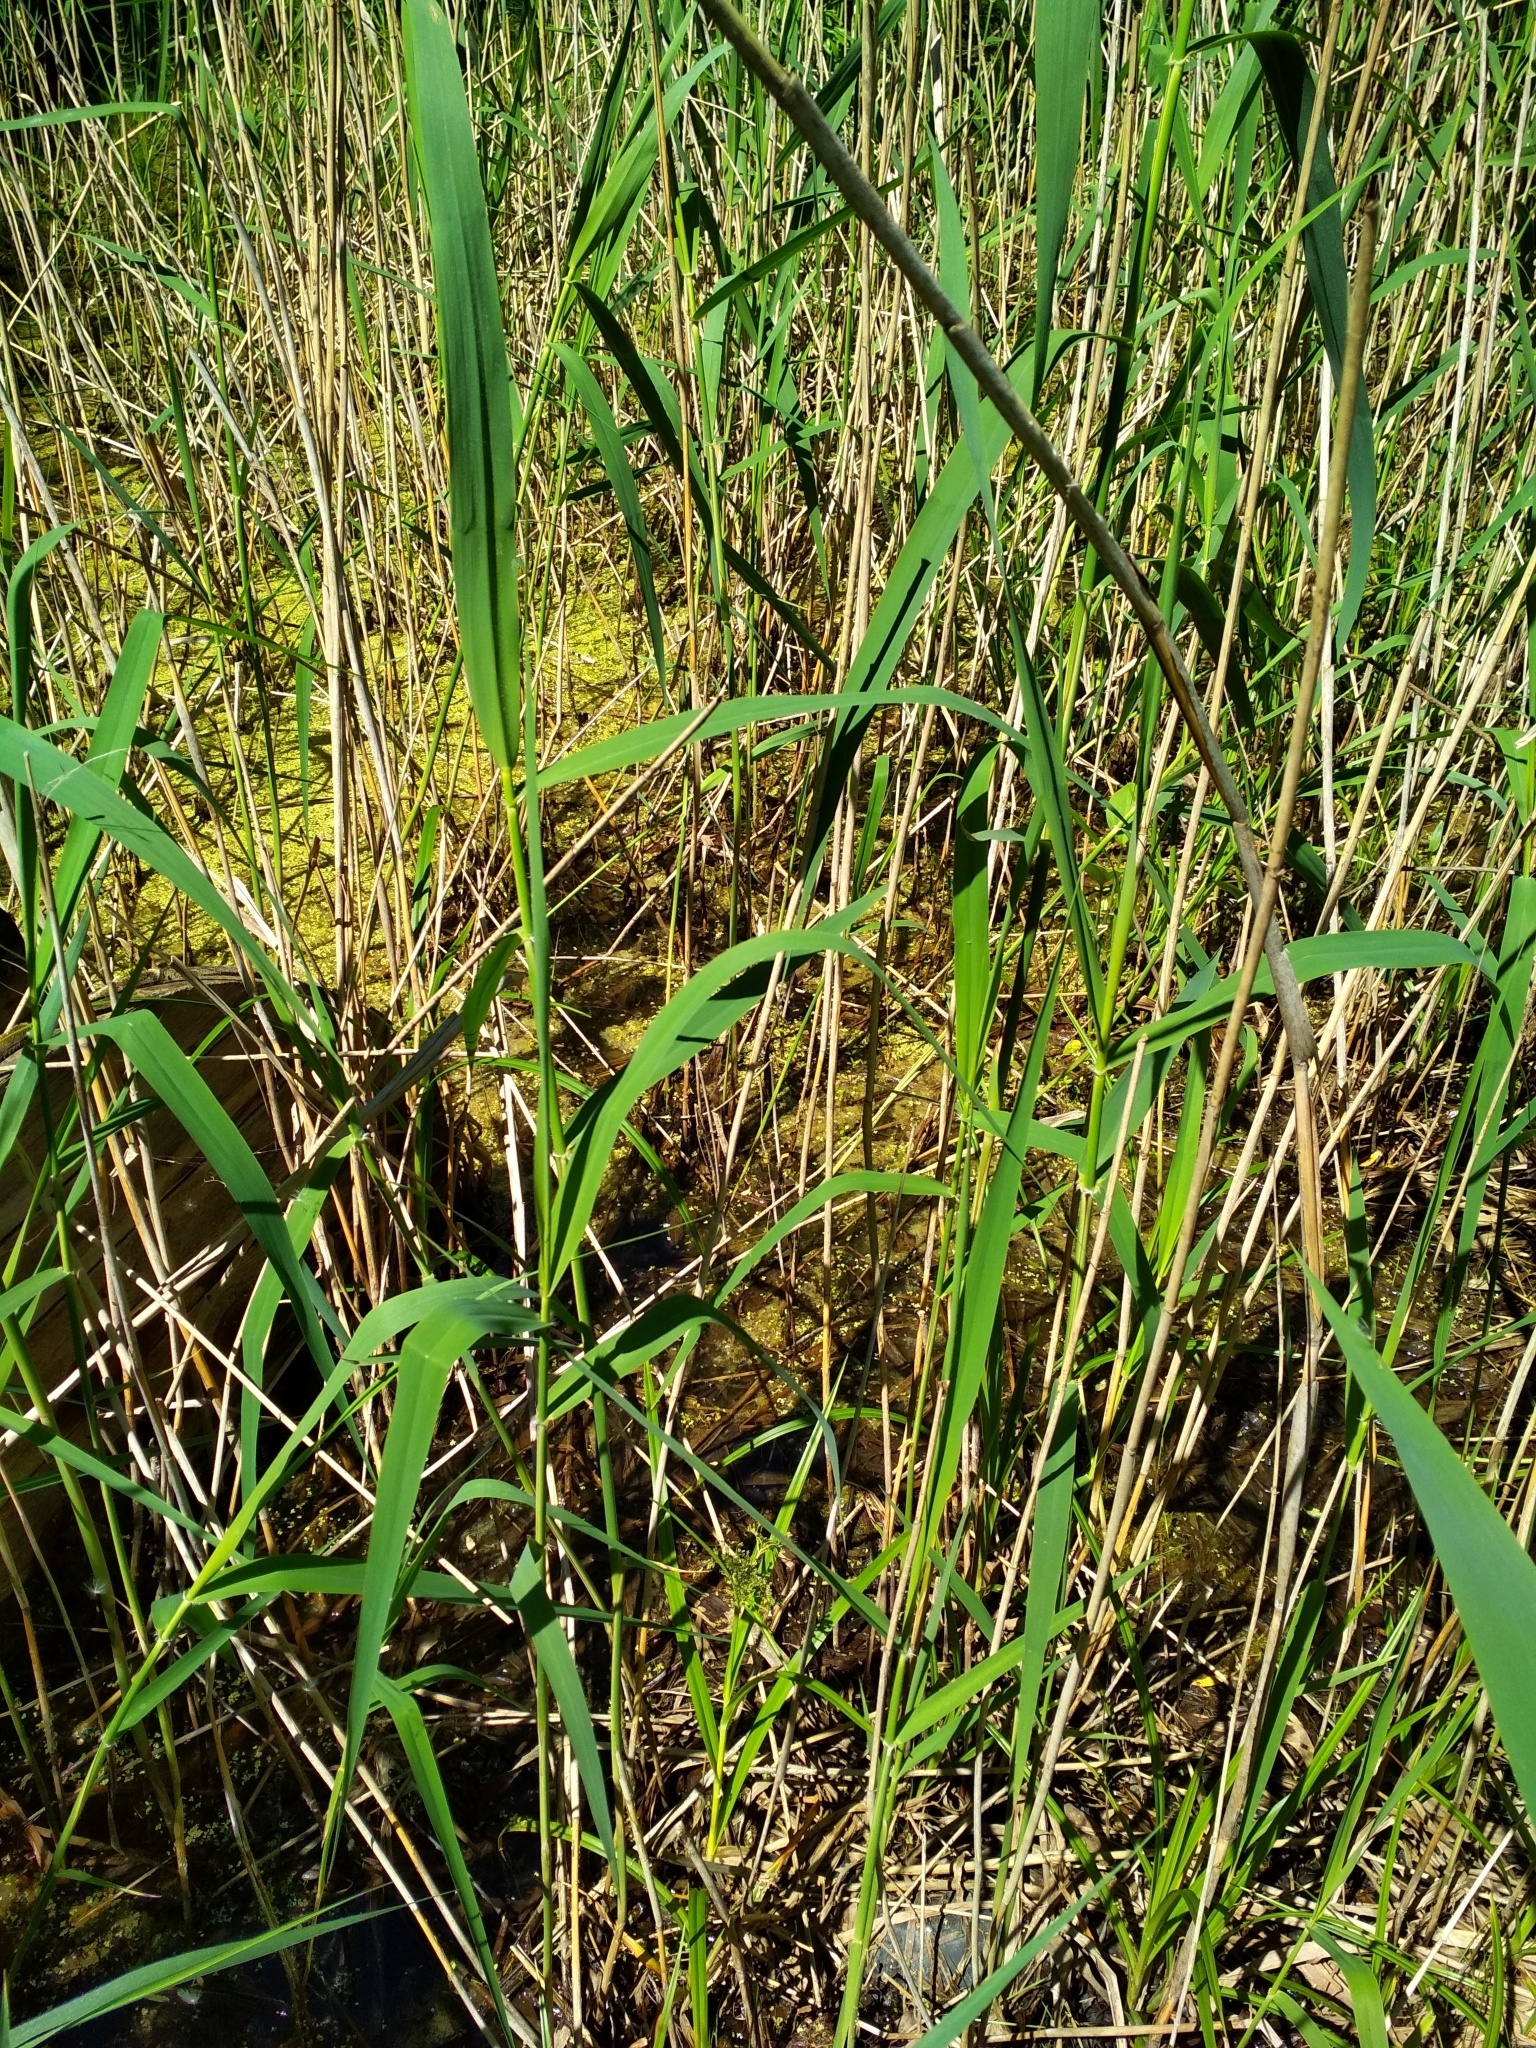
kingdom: Plantae
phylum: Tracheophyta
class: Liliopsida
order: Poales
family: Poaceae
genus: Phragmites
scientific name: Phragmites australis
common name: Common reed
